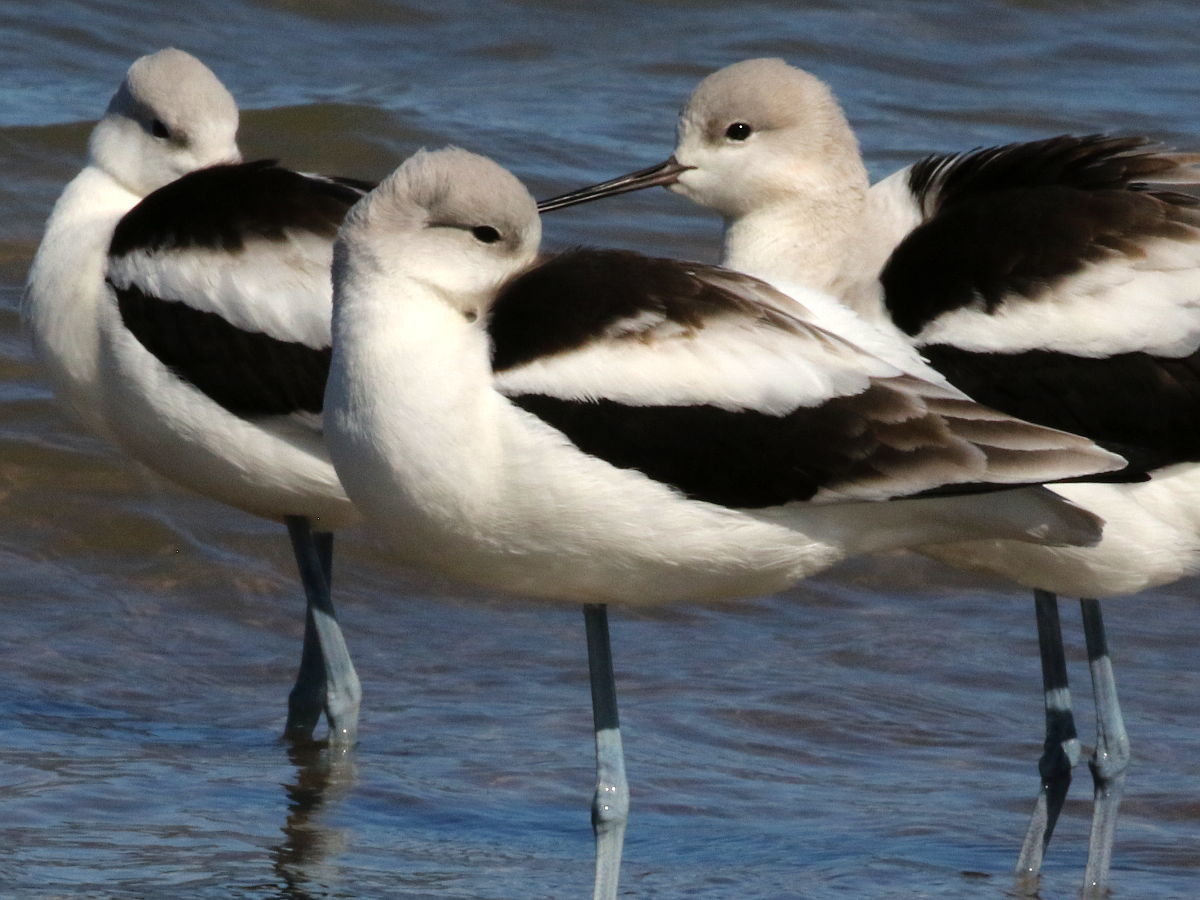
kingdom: Animalia
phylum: Chordata
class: Aves
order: Charadriiformes
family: Recurvirostridae
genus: Recurvirostra
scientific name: Recurvirostra americana
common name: American avocet
